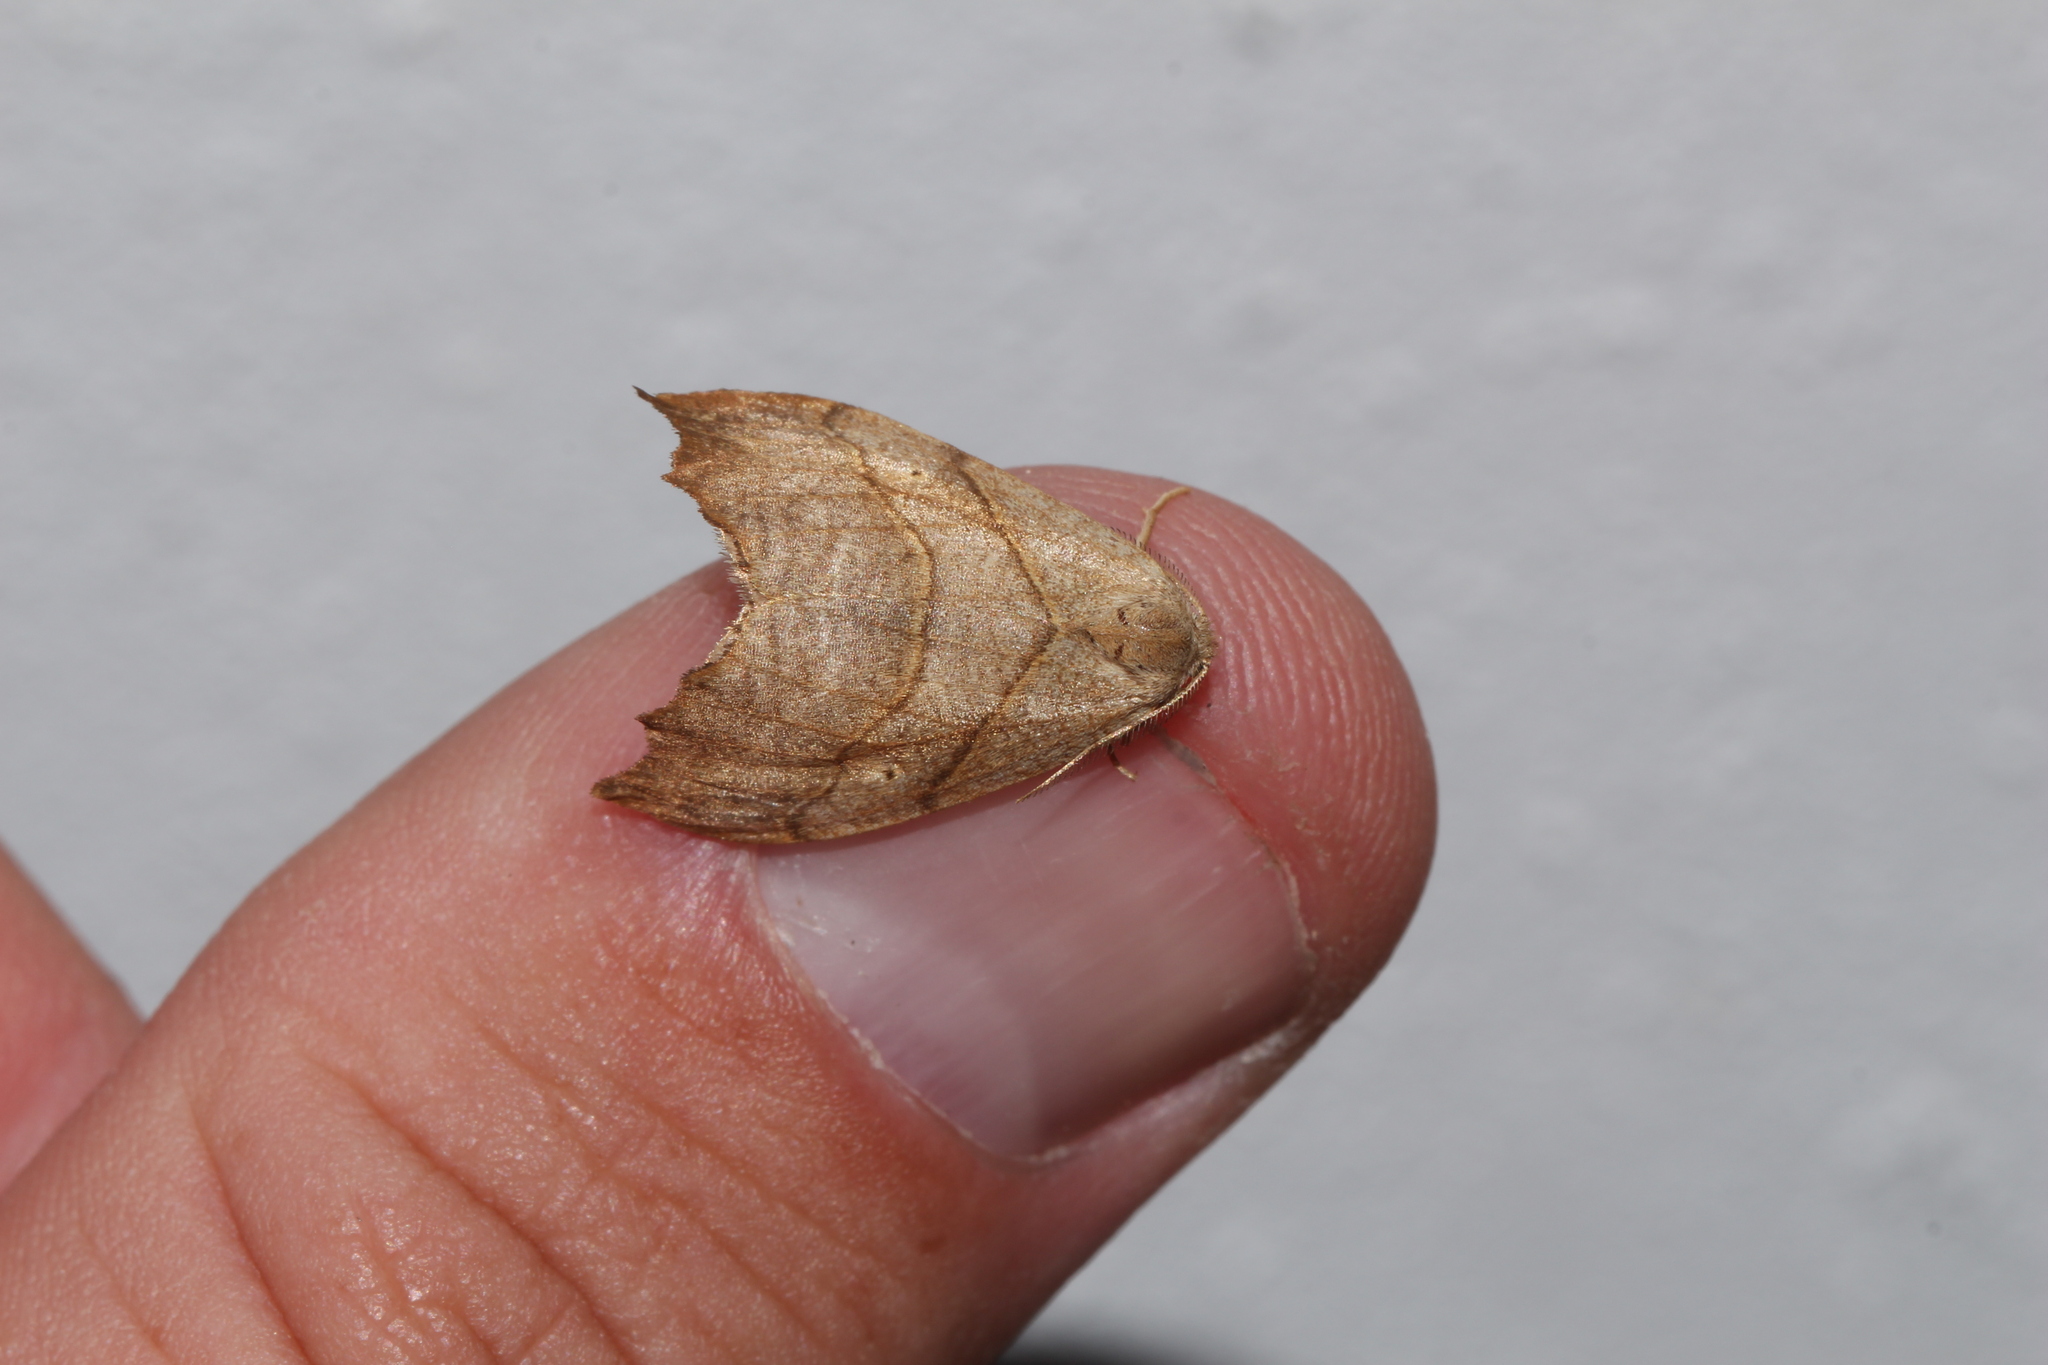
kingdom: Animalia
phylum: Arthropoda
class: Insecta
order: Lepidoptera
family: Drepanidae
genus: Falcaria
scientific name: Falcaria lacertinaria
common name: Scalloped hook-tip
